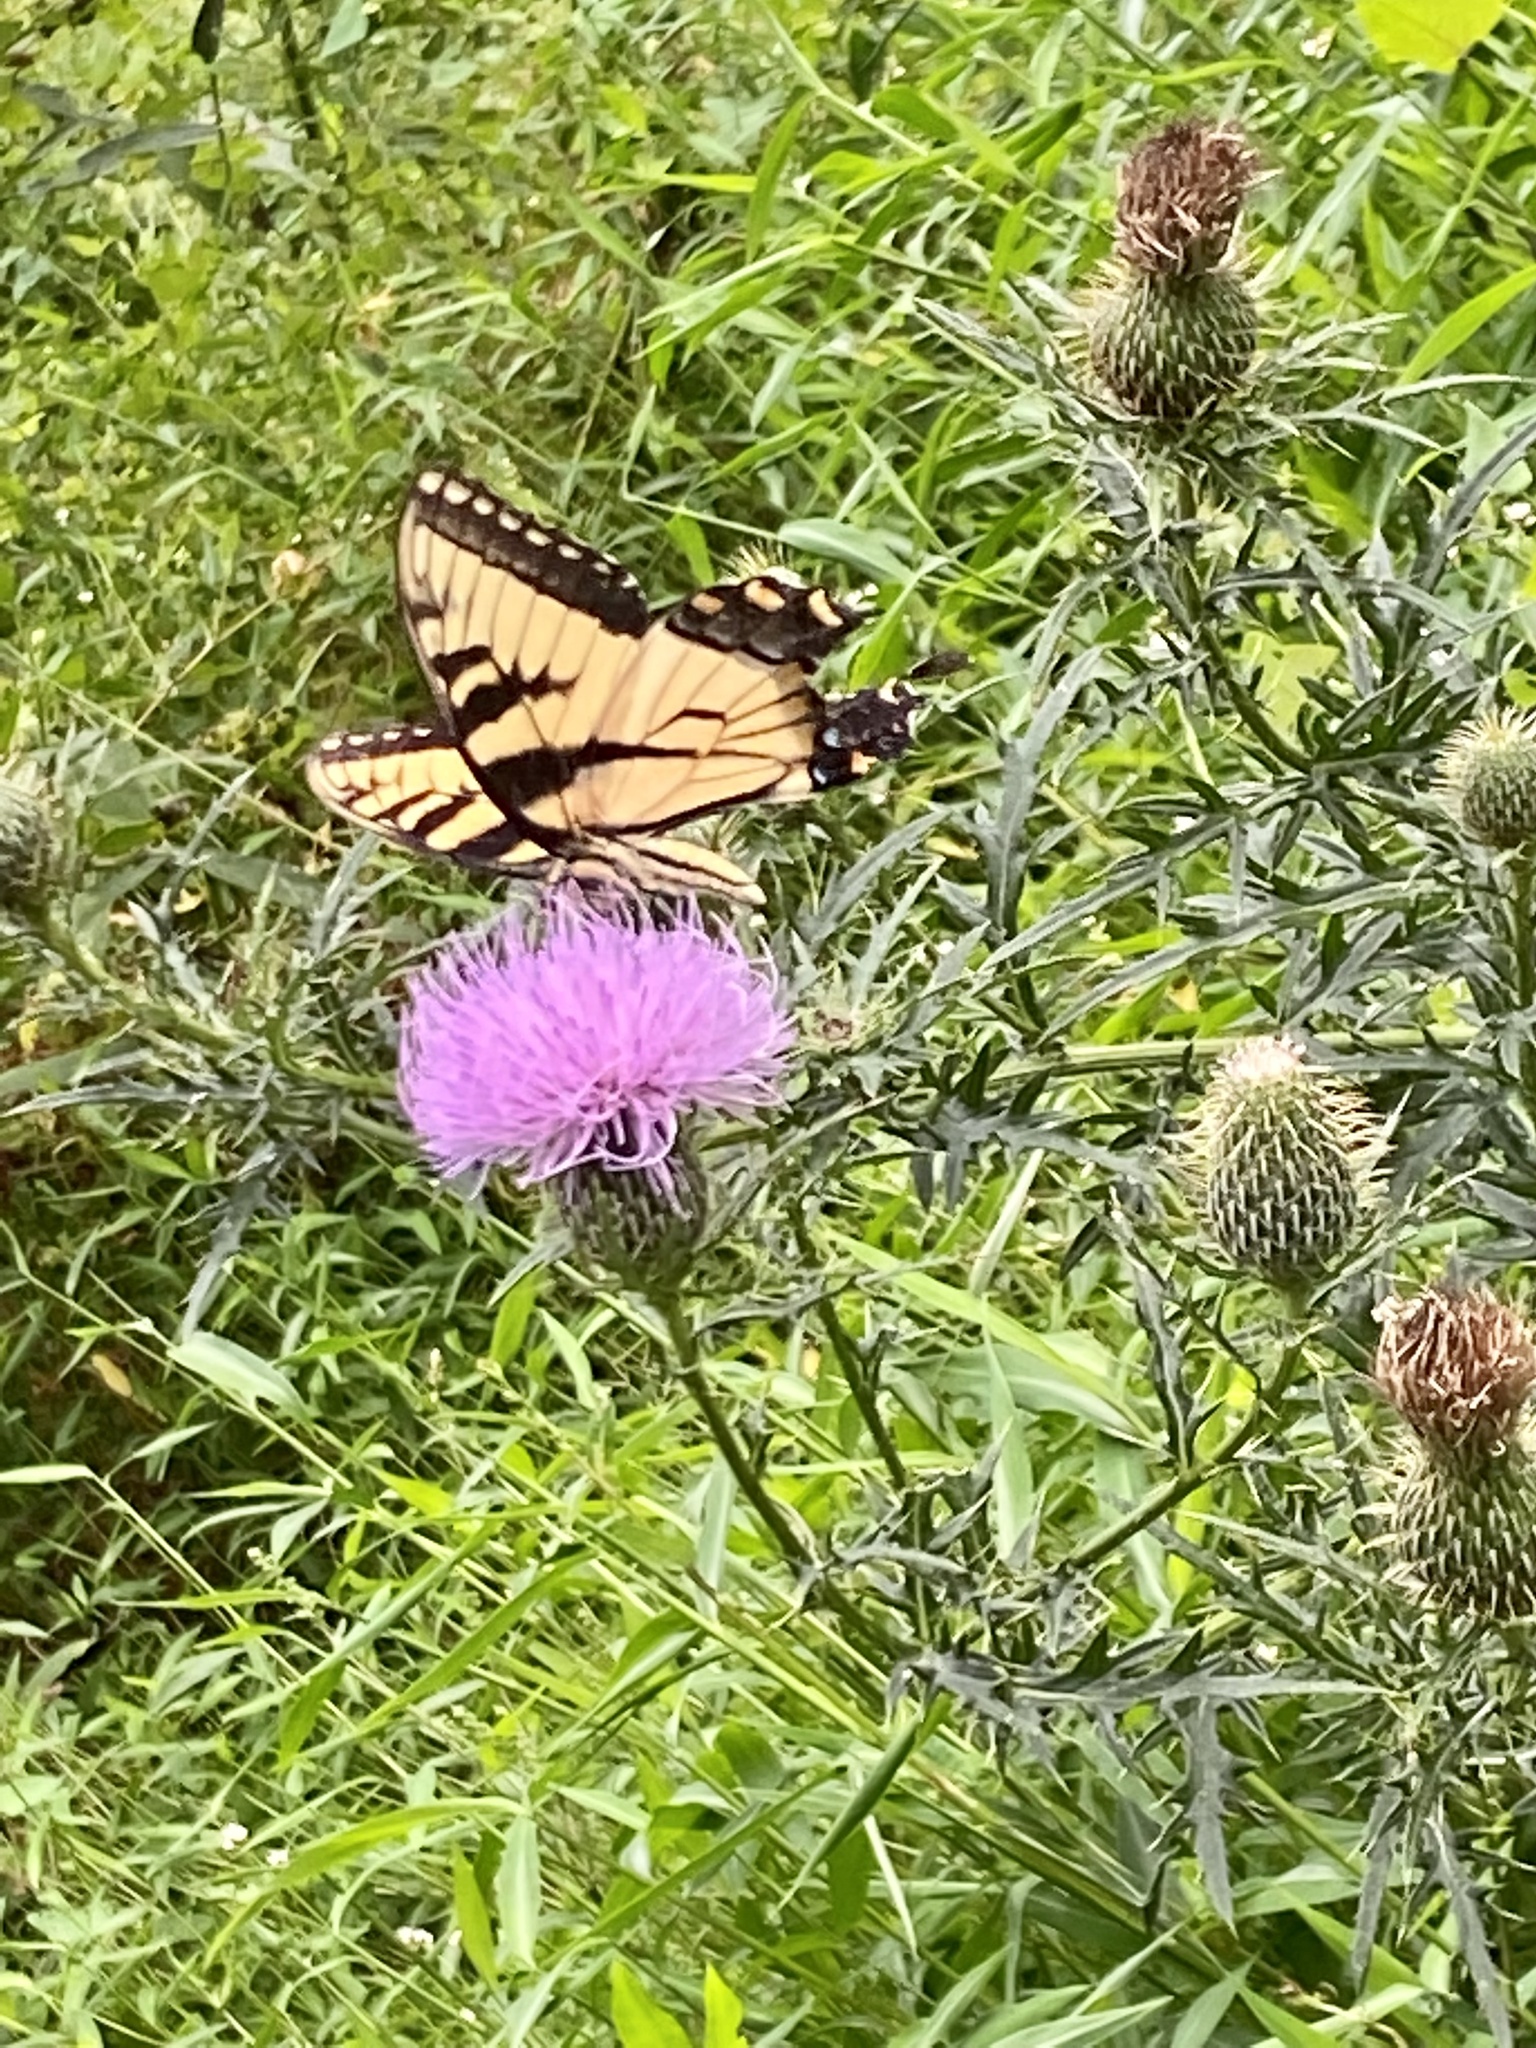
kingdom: Animalia
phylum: Arthropoda
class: Insecta
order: Lepidoptera
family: Papilionidae
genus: Papilio
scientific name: Papilio glaucus
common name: Tiger swallowtail
